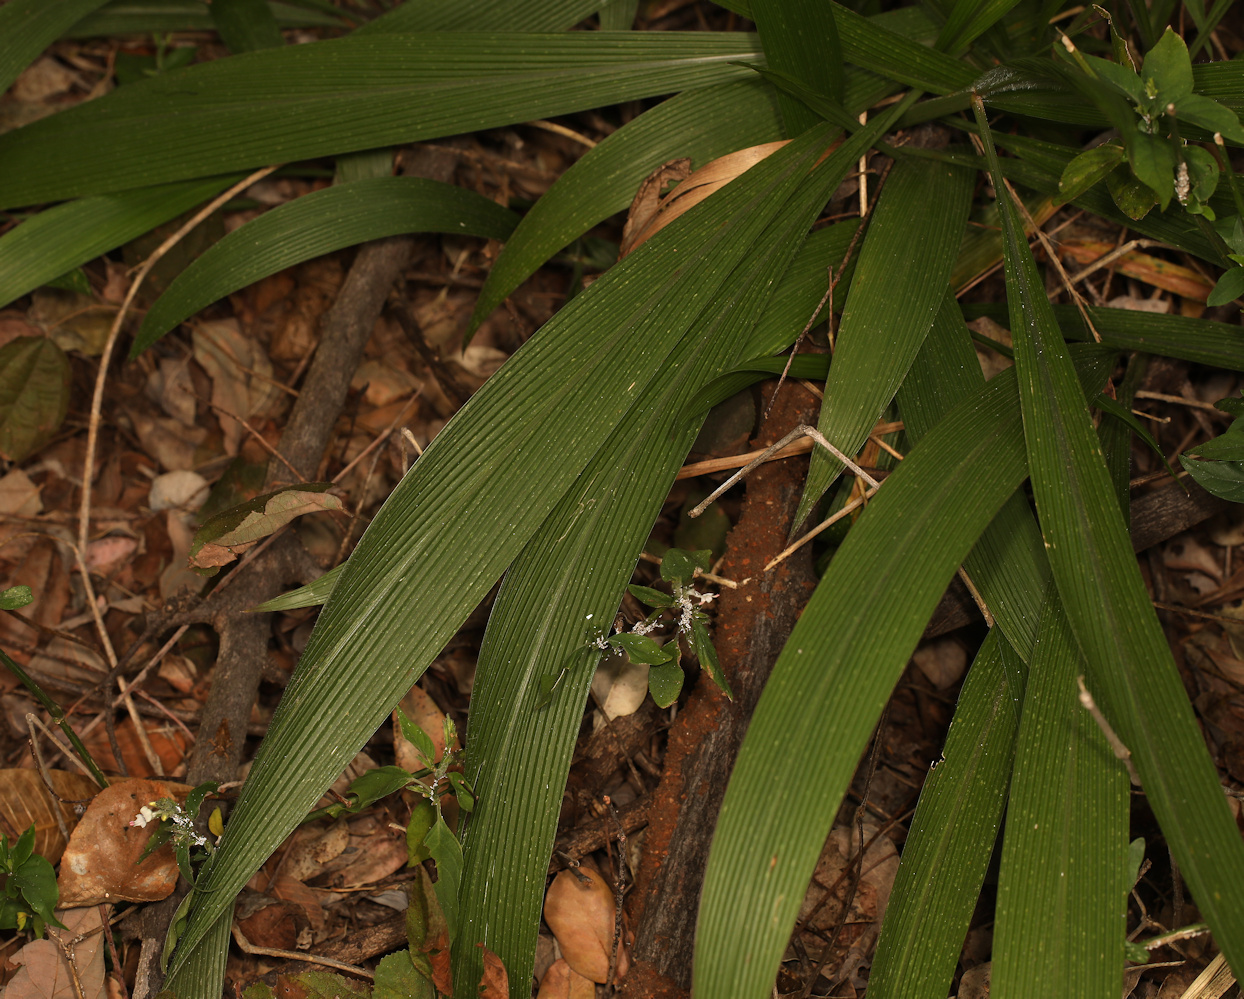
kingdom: Plantae
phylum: Tracheophyta
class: Liliopsida
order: Poales
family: Poaceae
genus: Setaria
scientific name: Setaria megaphylla
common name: Bigleaf bristlegrass
